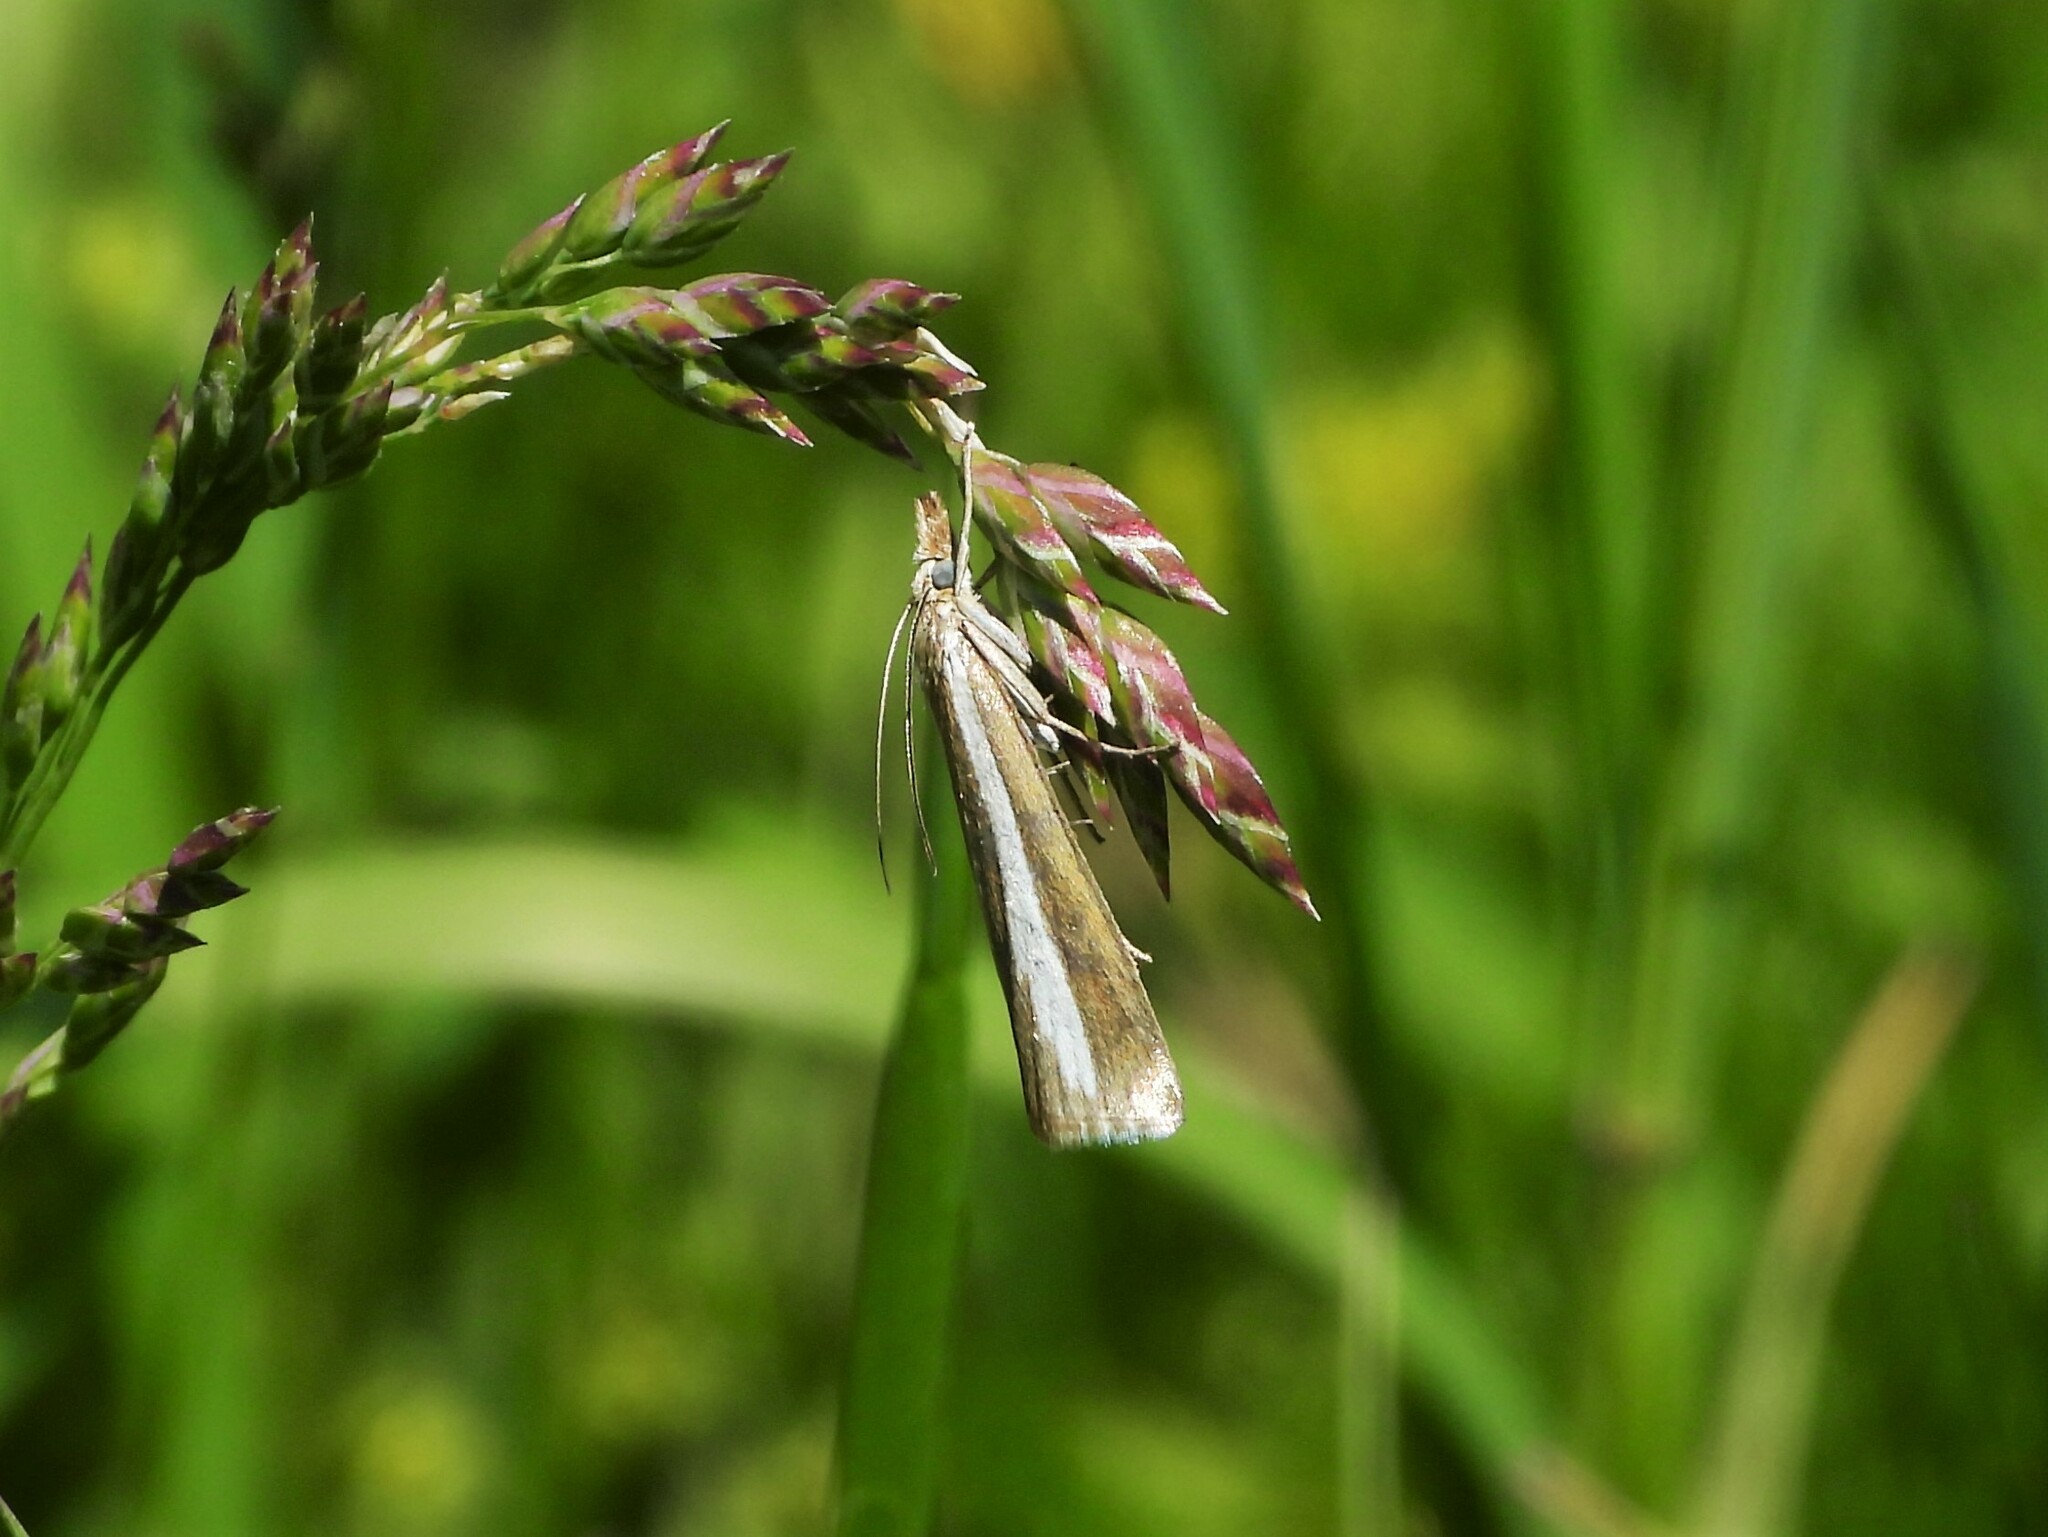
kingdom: Animalia
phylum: Arthropoda
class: Insecta
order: Lepidoptera
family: Crambidae
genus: Catoptria
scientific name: Catoptria margaritellus
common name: Pearl-band grass veneer
